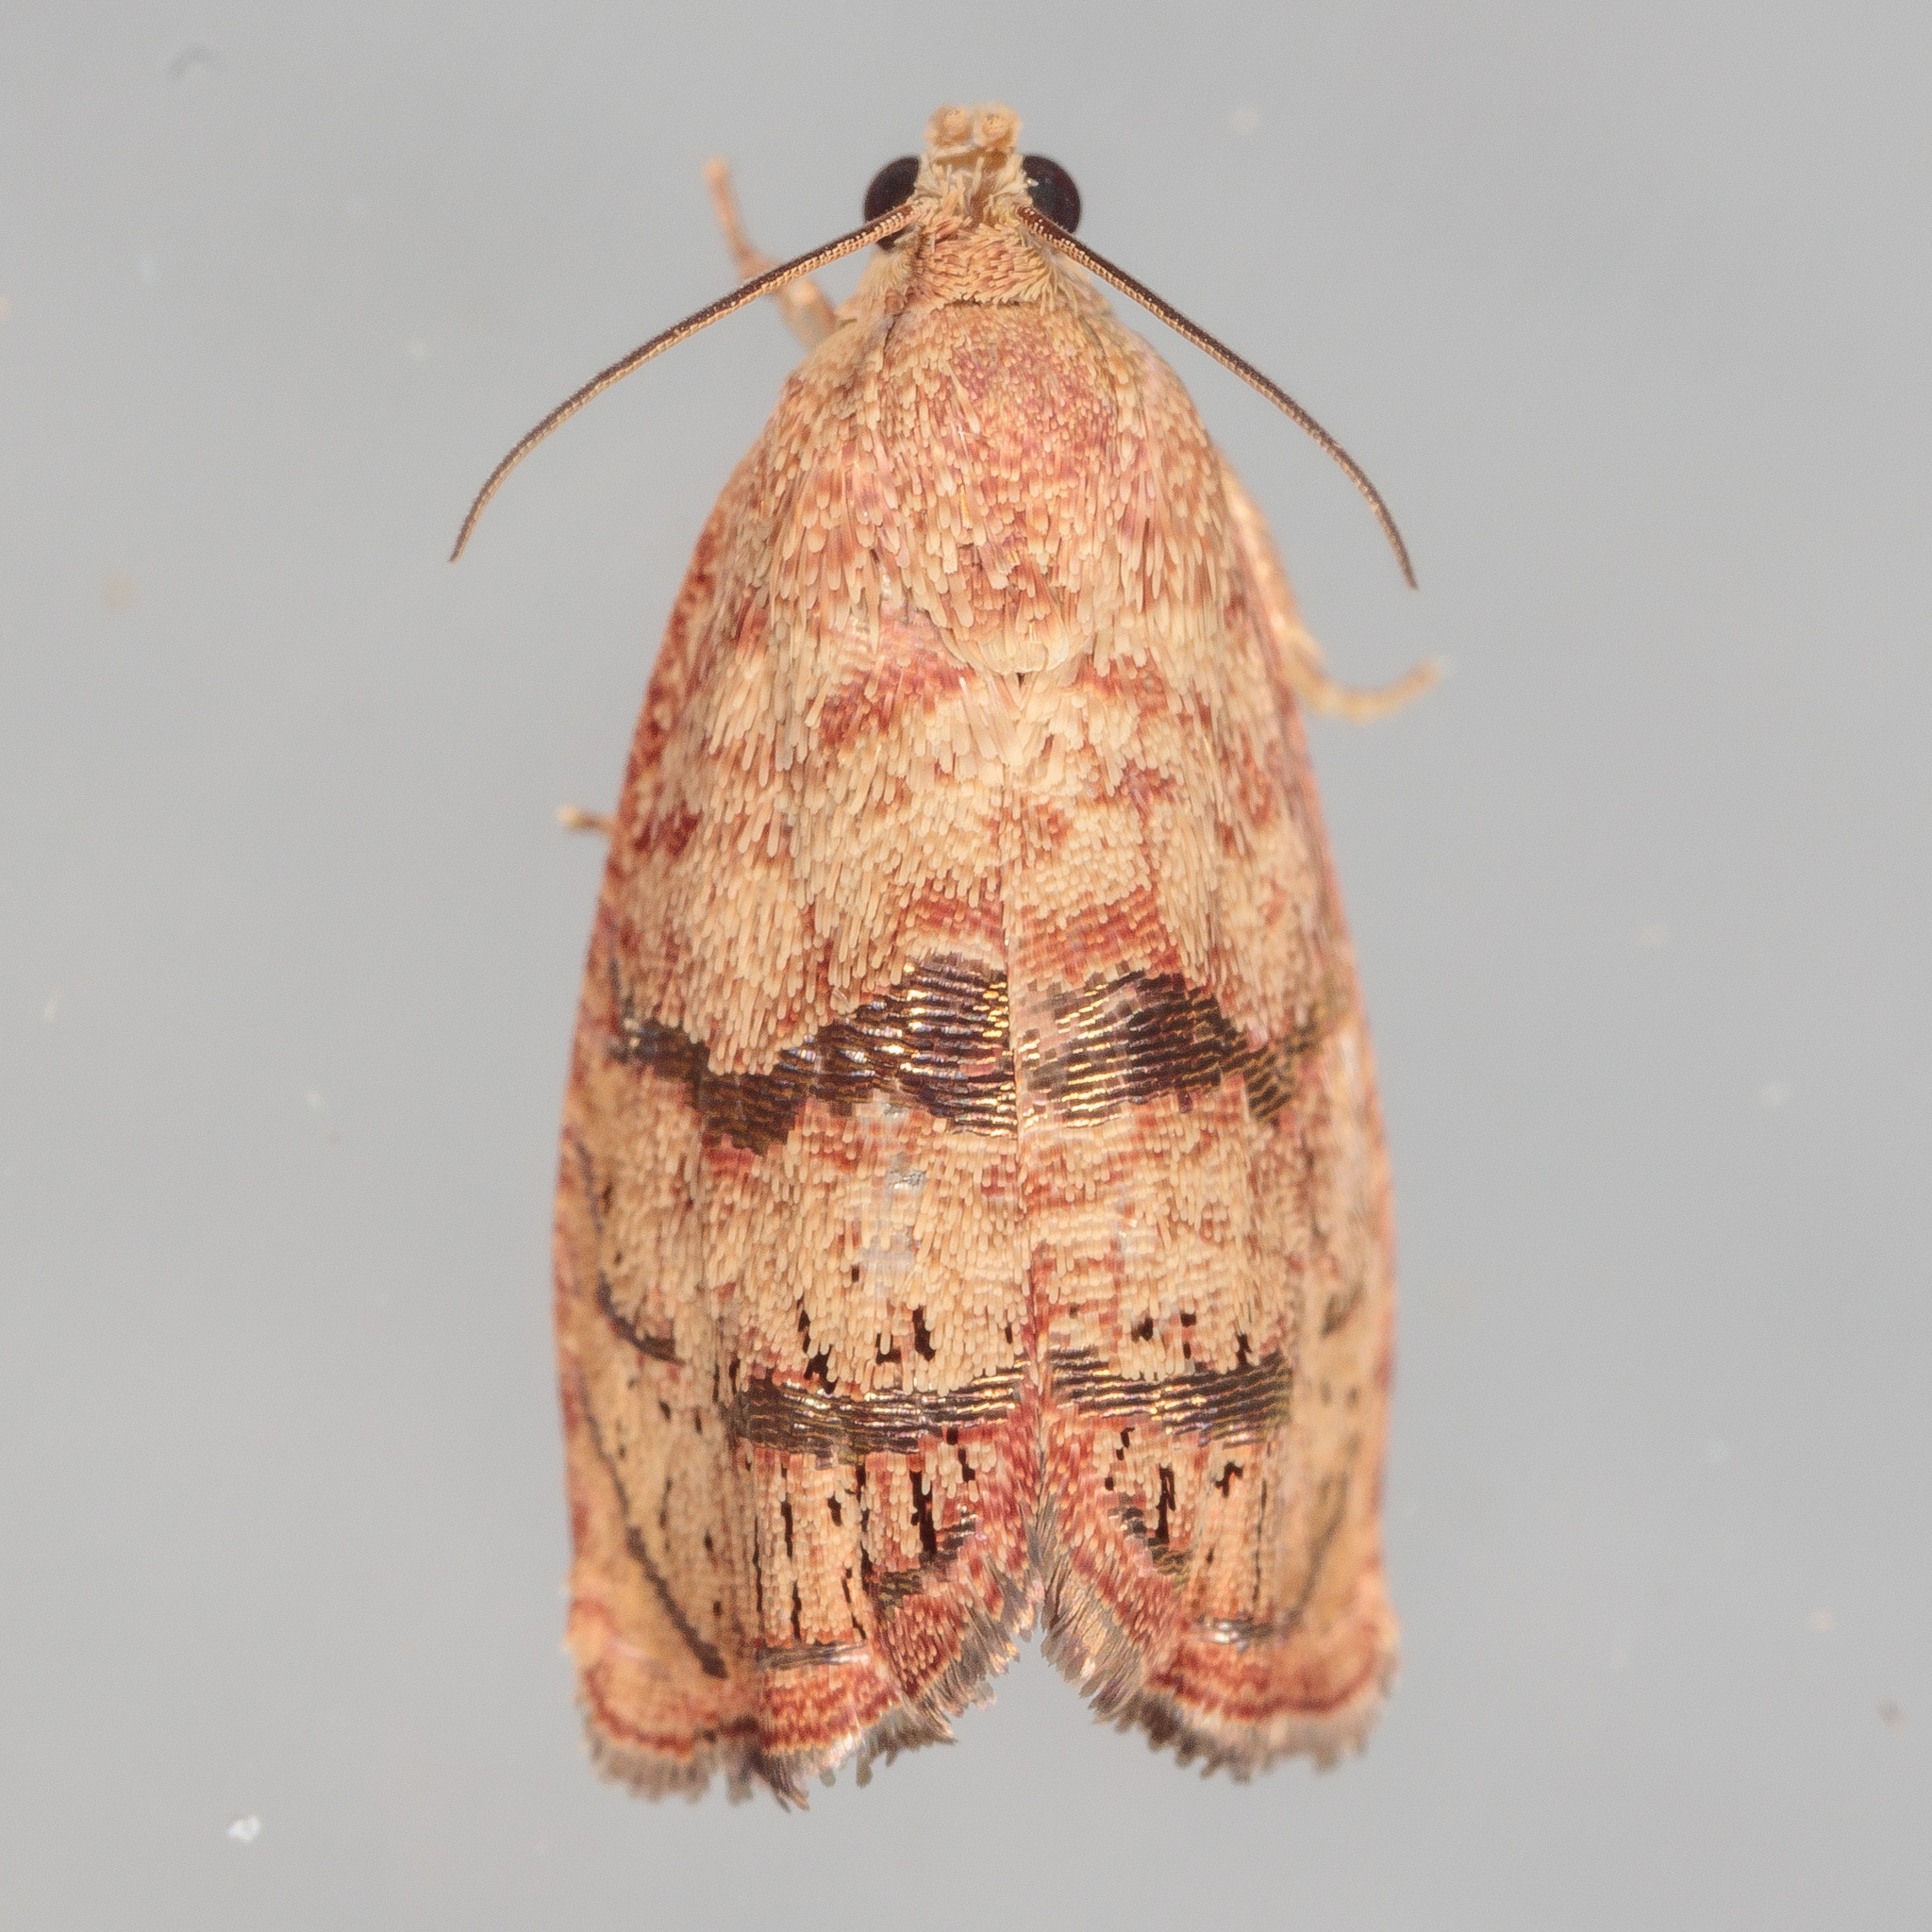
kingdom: Animalia
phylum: Arthropoda
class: Insecta
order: Lepidoptera
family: Tortricidae
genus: Cydia
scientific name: Cydia latiferreana
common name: Filbertworm moth
